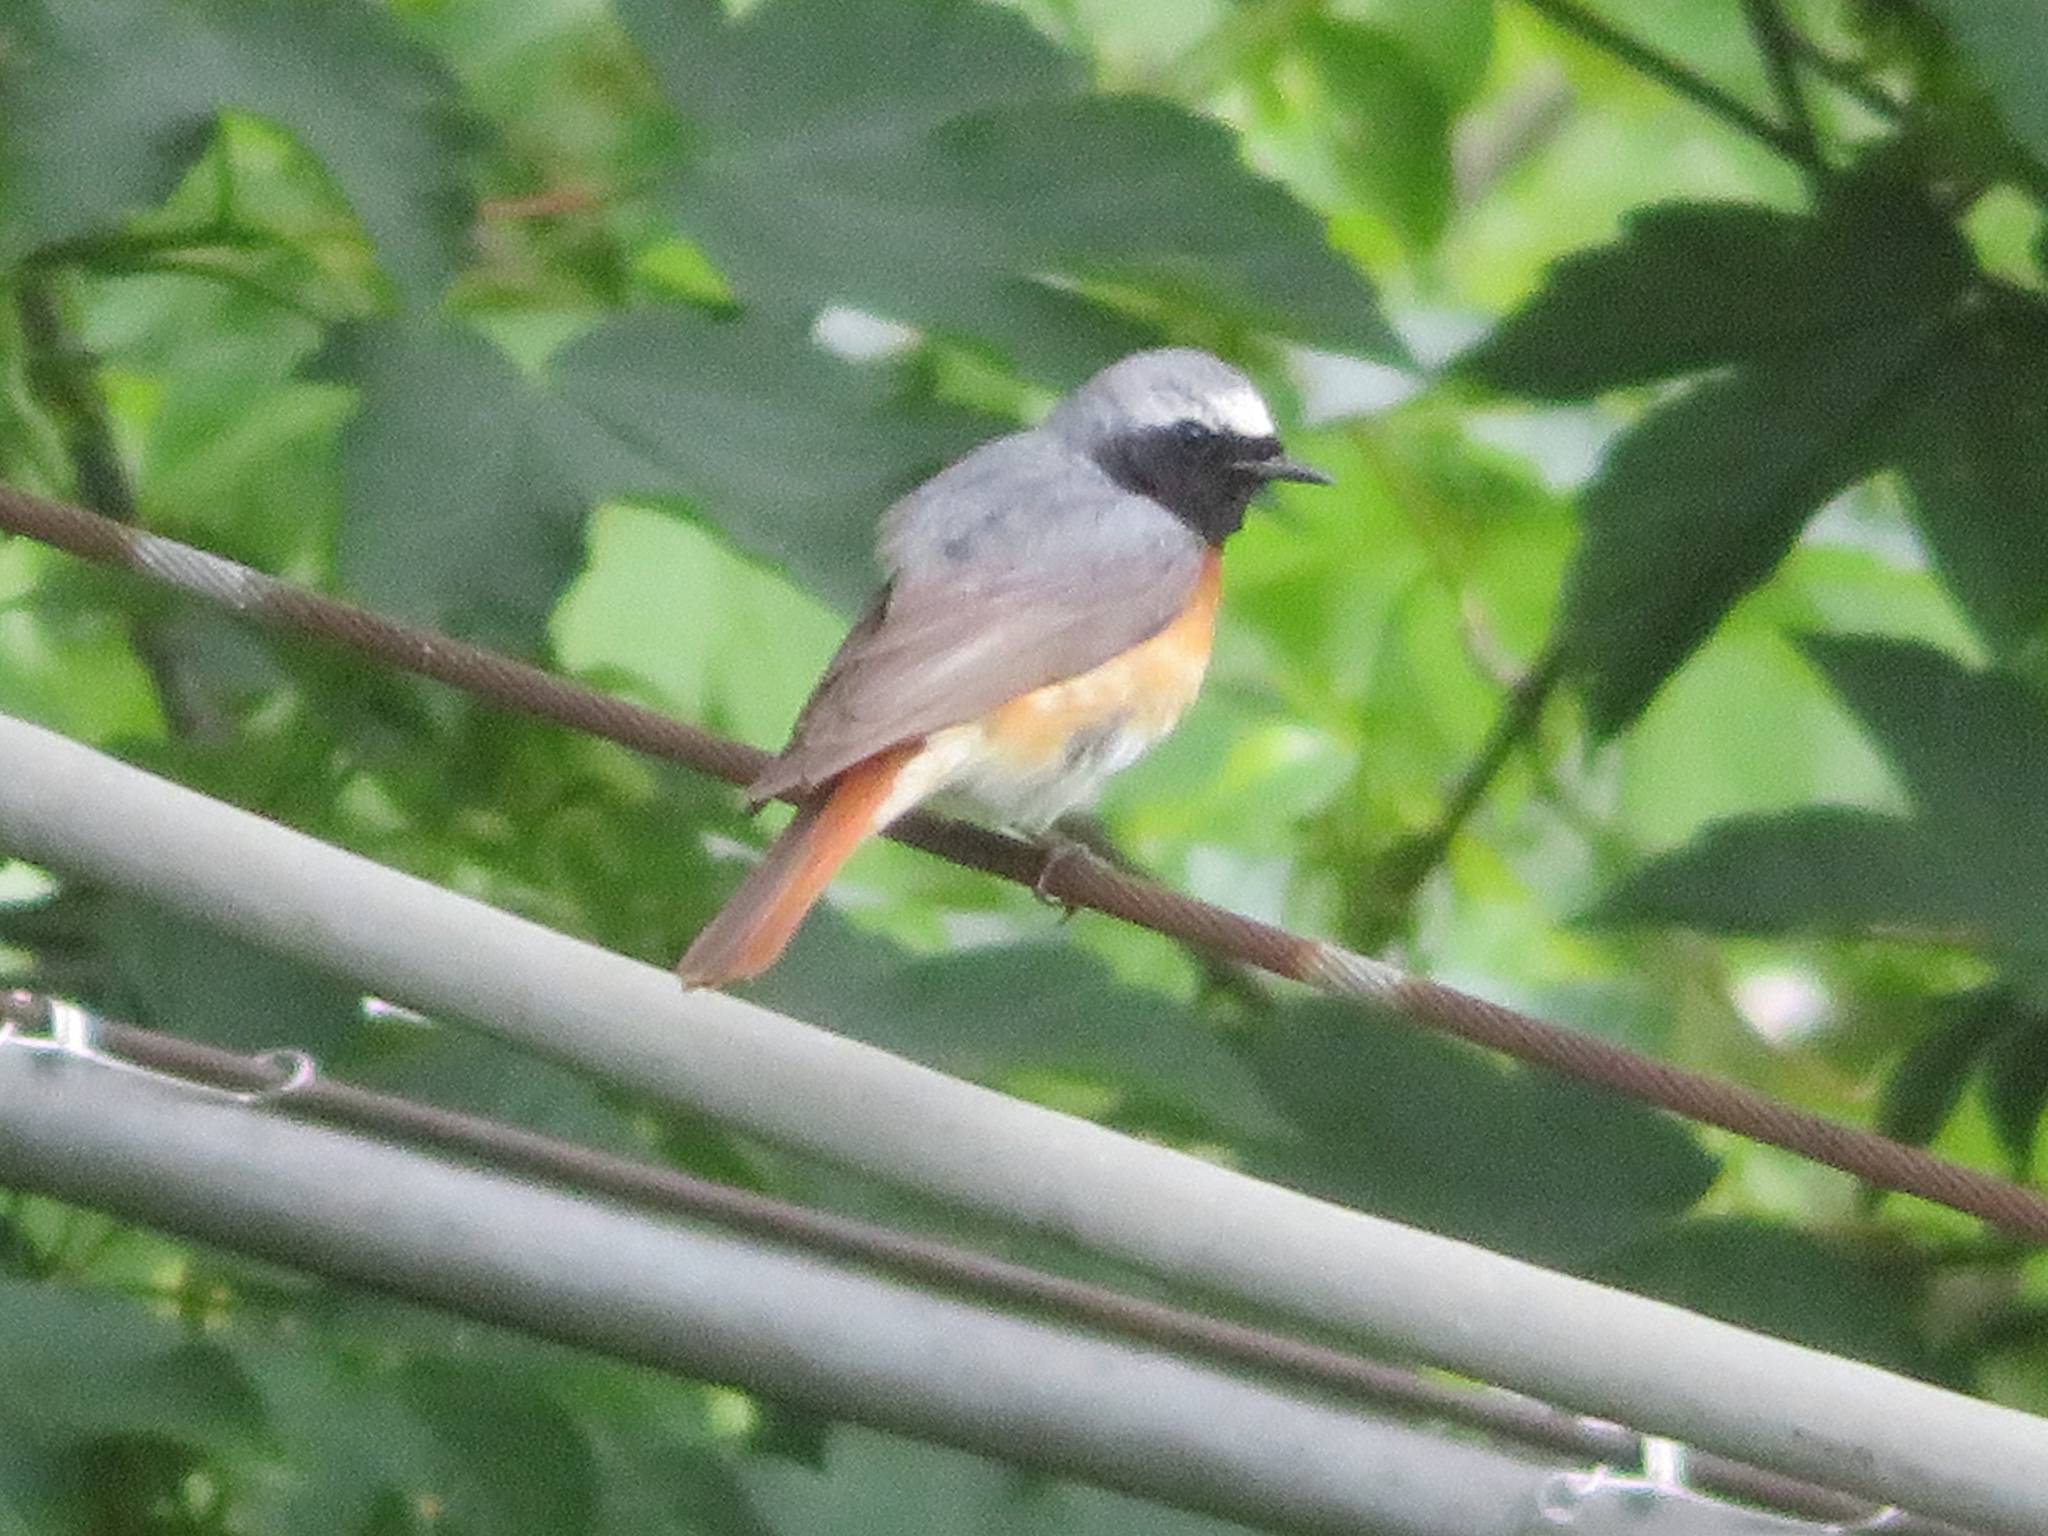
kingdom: Animalia
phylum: Chordata
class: Aves
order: Passeriformes
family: Muscicapidae
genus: Phoenicurus
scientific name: Phoenicurus phoenicurus
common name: Common redstart
